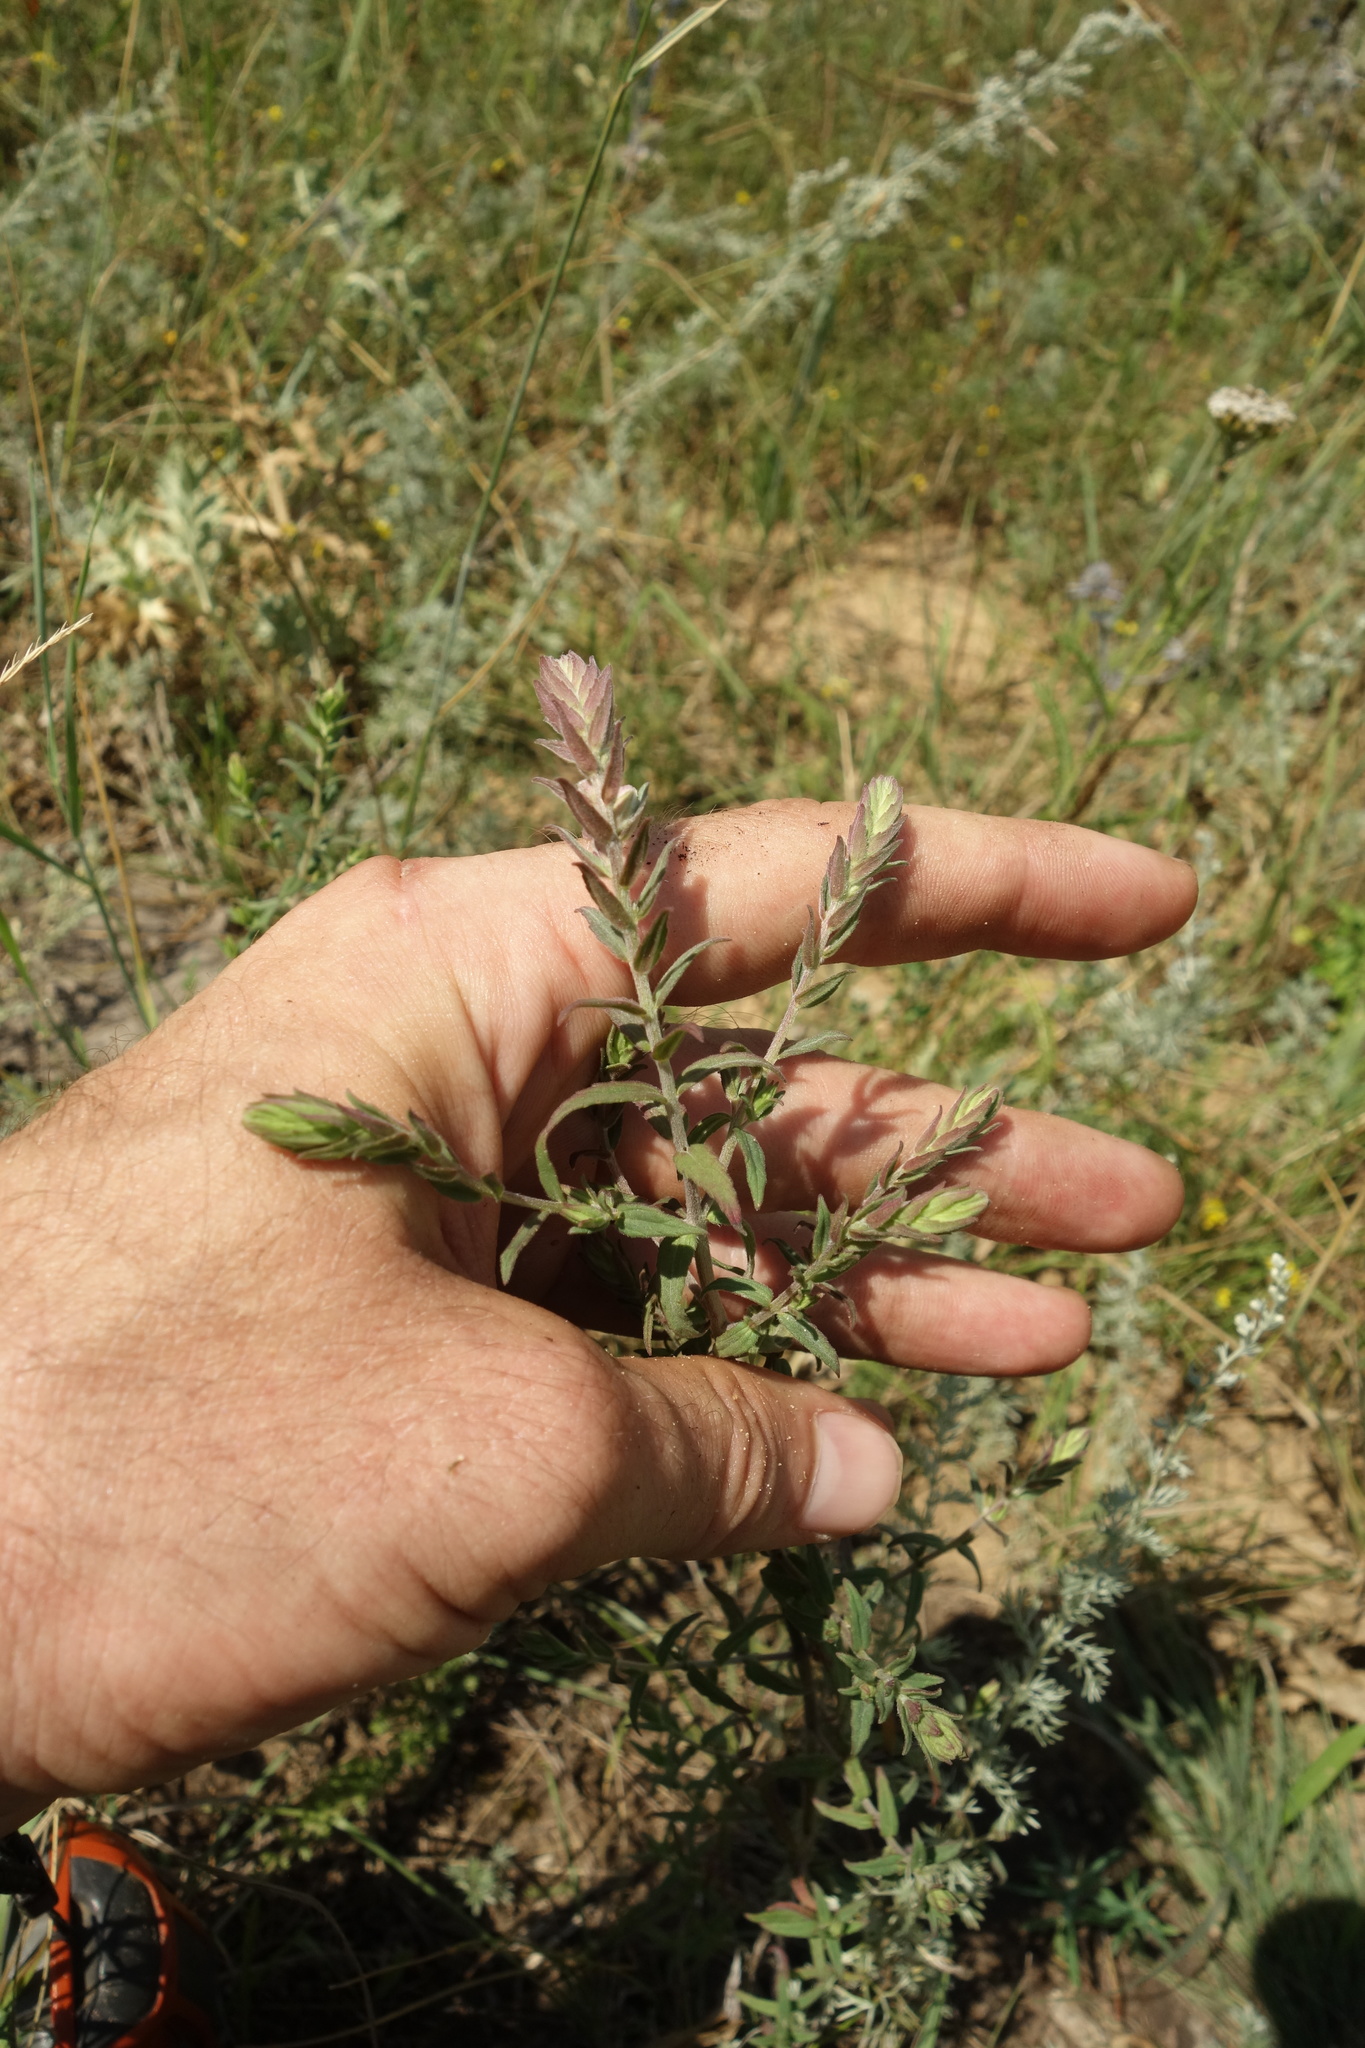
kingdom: Plantae
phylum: Tracheophyta
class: Magnoliopsida
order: Lamiales
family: Orobanchaceae
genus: Odontites
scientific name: Odontites vulgaris
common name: Broomrape
